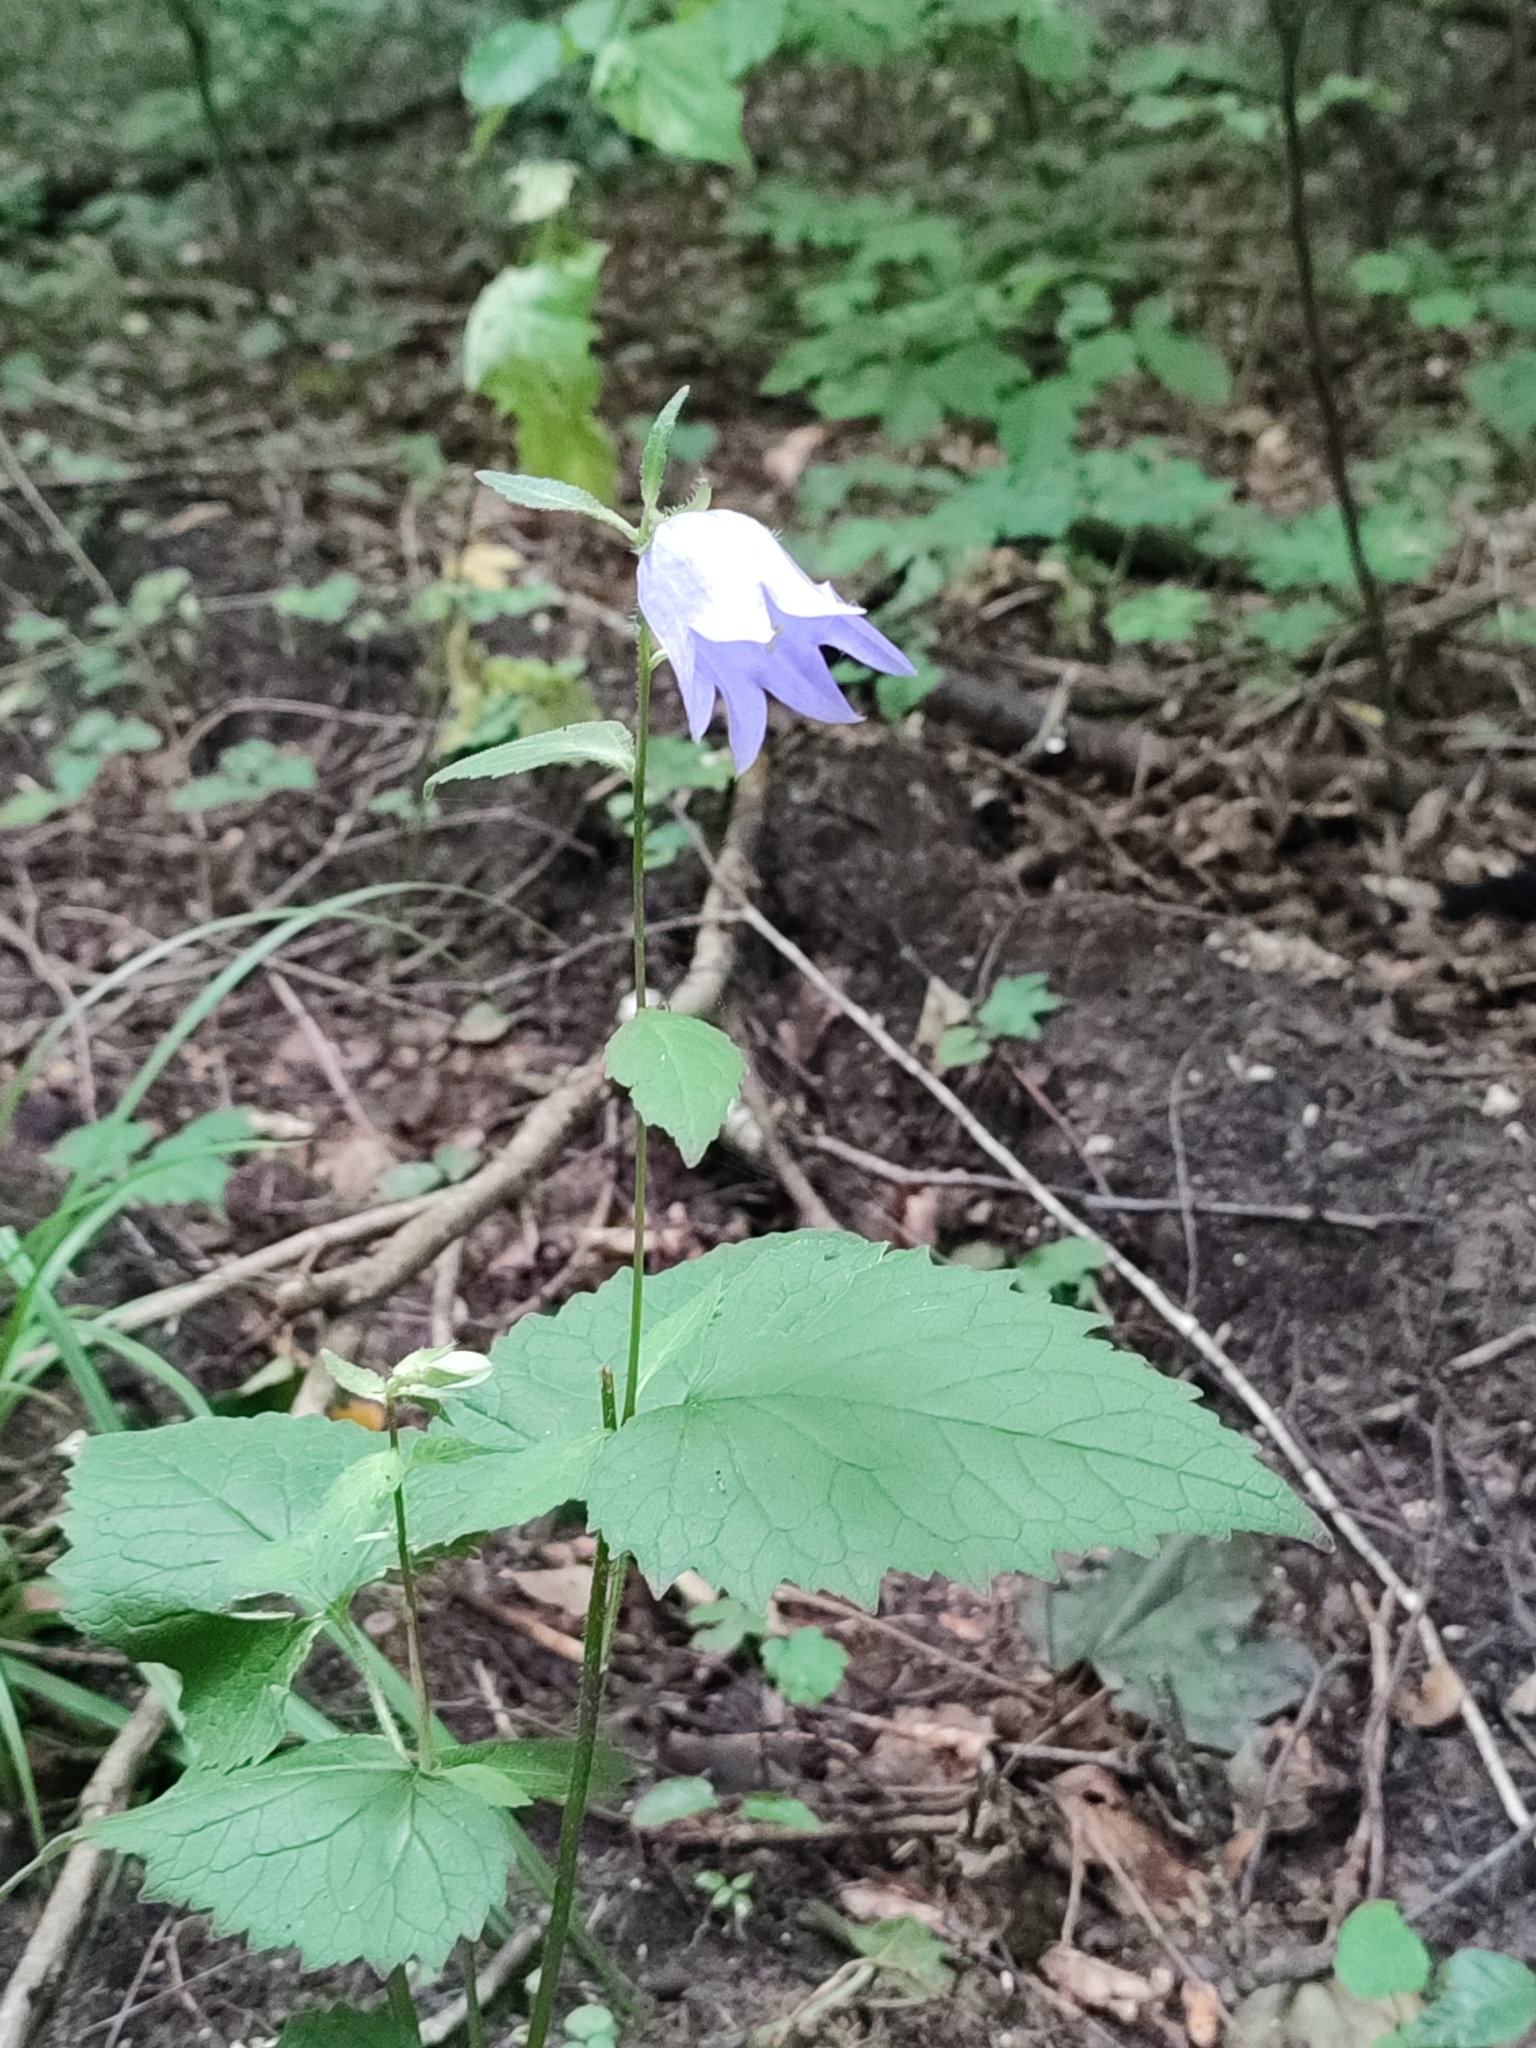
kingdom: Plantae
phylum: Tracheophyta
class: Magnoliopsida
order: Asterales
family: Campanulaceae
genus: Campanula
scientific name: Campanula trachelium
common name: Nettle-leaved bellflower
